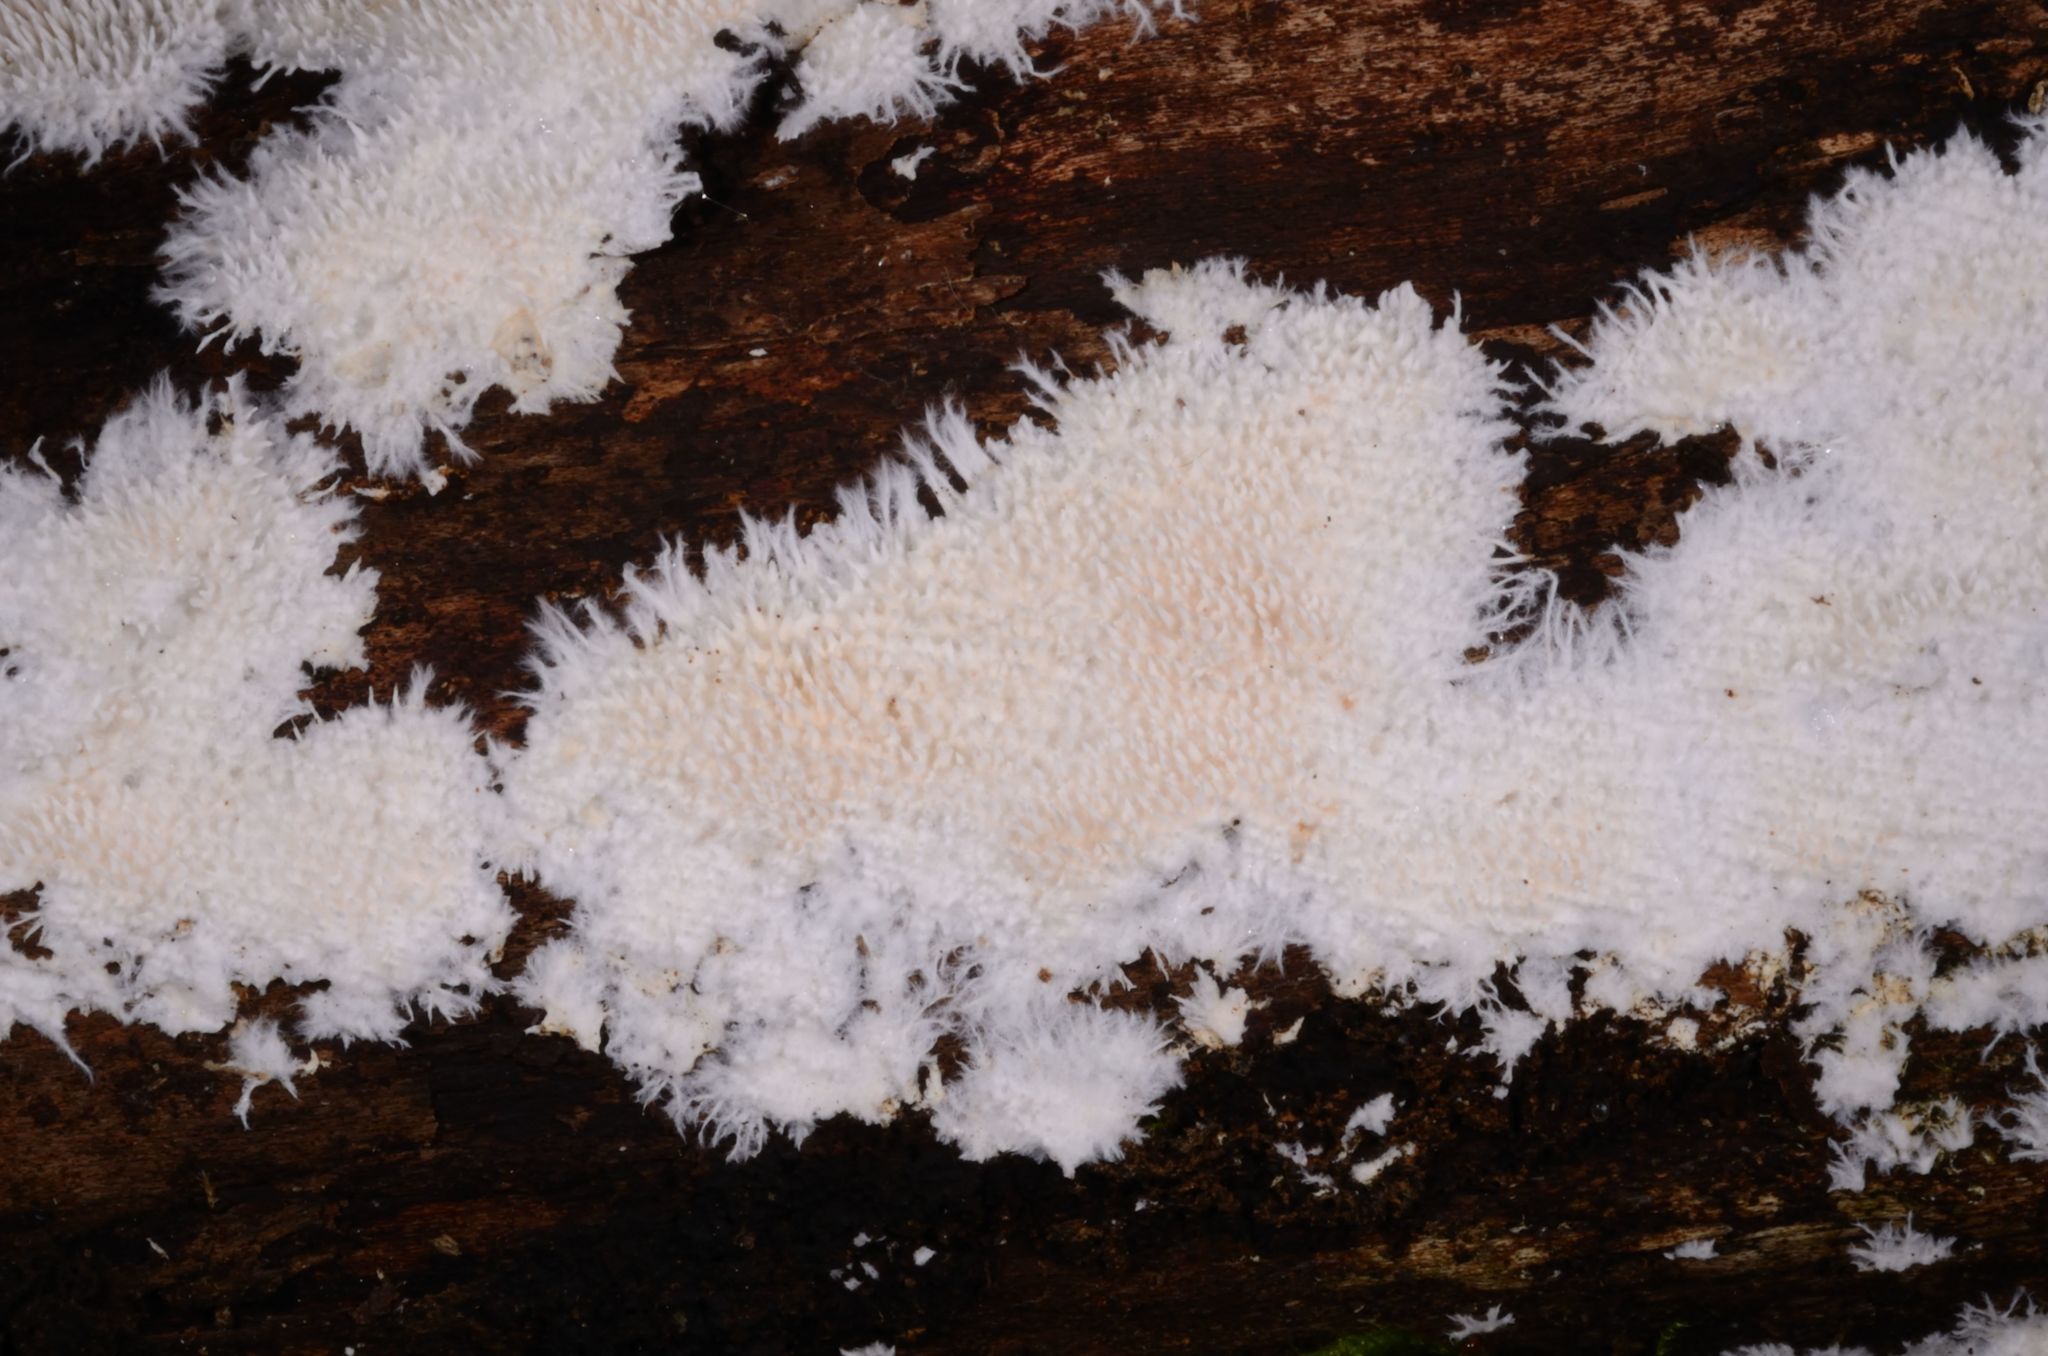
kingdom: Fungi
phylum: Basidiomycota
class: Agaricomycetes
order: Gomphales
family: Lentariaceae
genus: Hydnocristella
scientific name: Hydnocristella himantia
